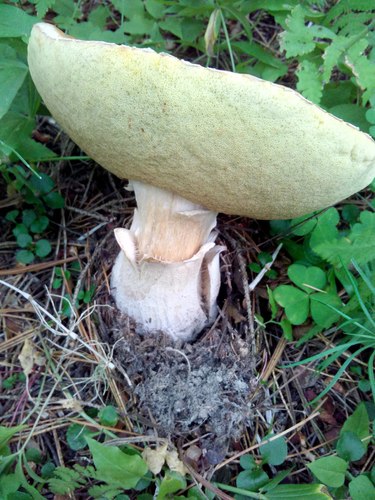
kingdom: Fungi
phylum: Basidiomycota
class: Agaricomycetes
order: Boletales
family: Boletaceae
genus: Boletus
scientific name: Boletus edulis
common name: Cep
